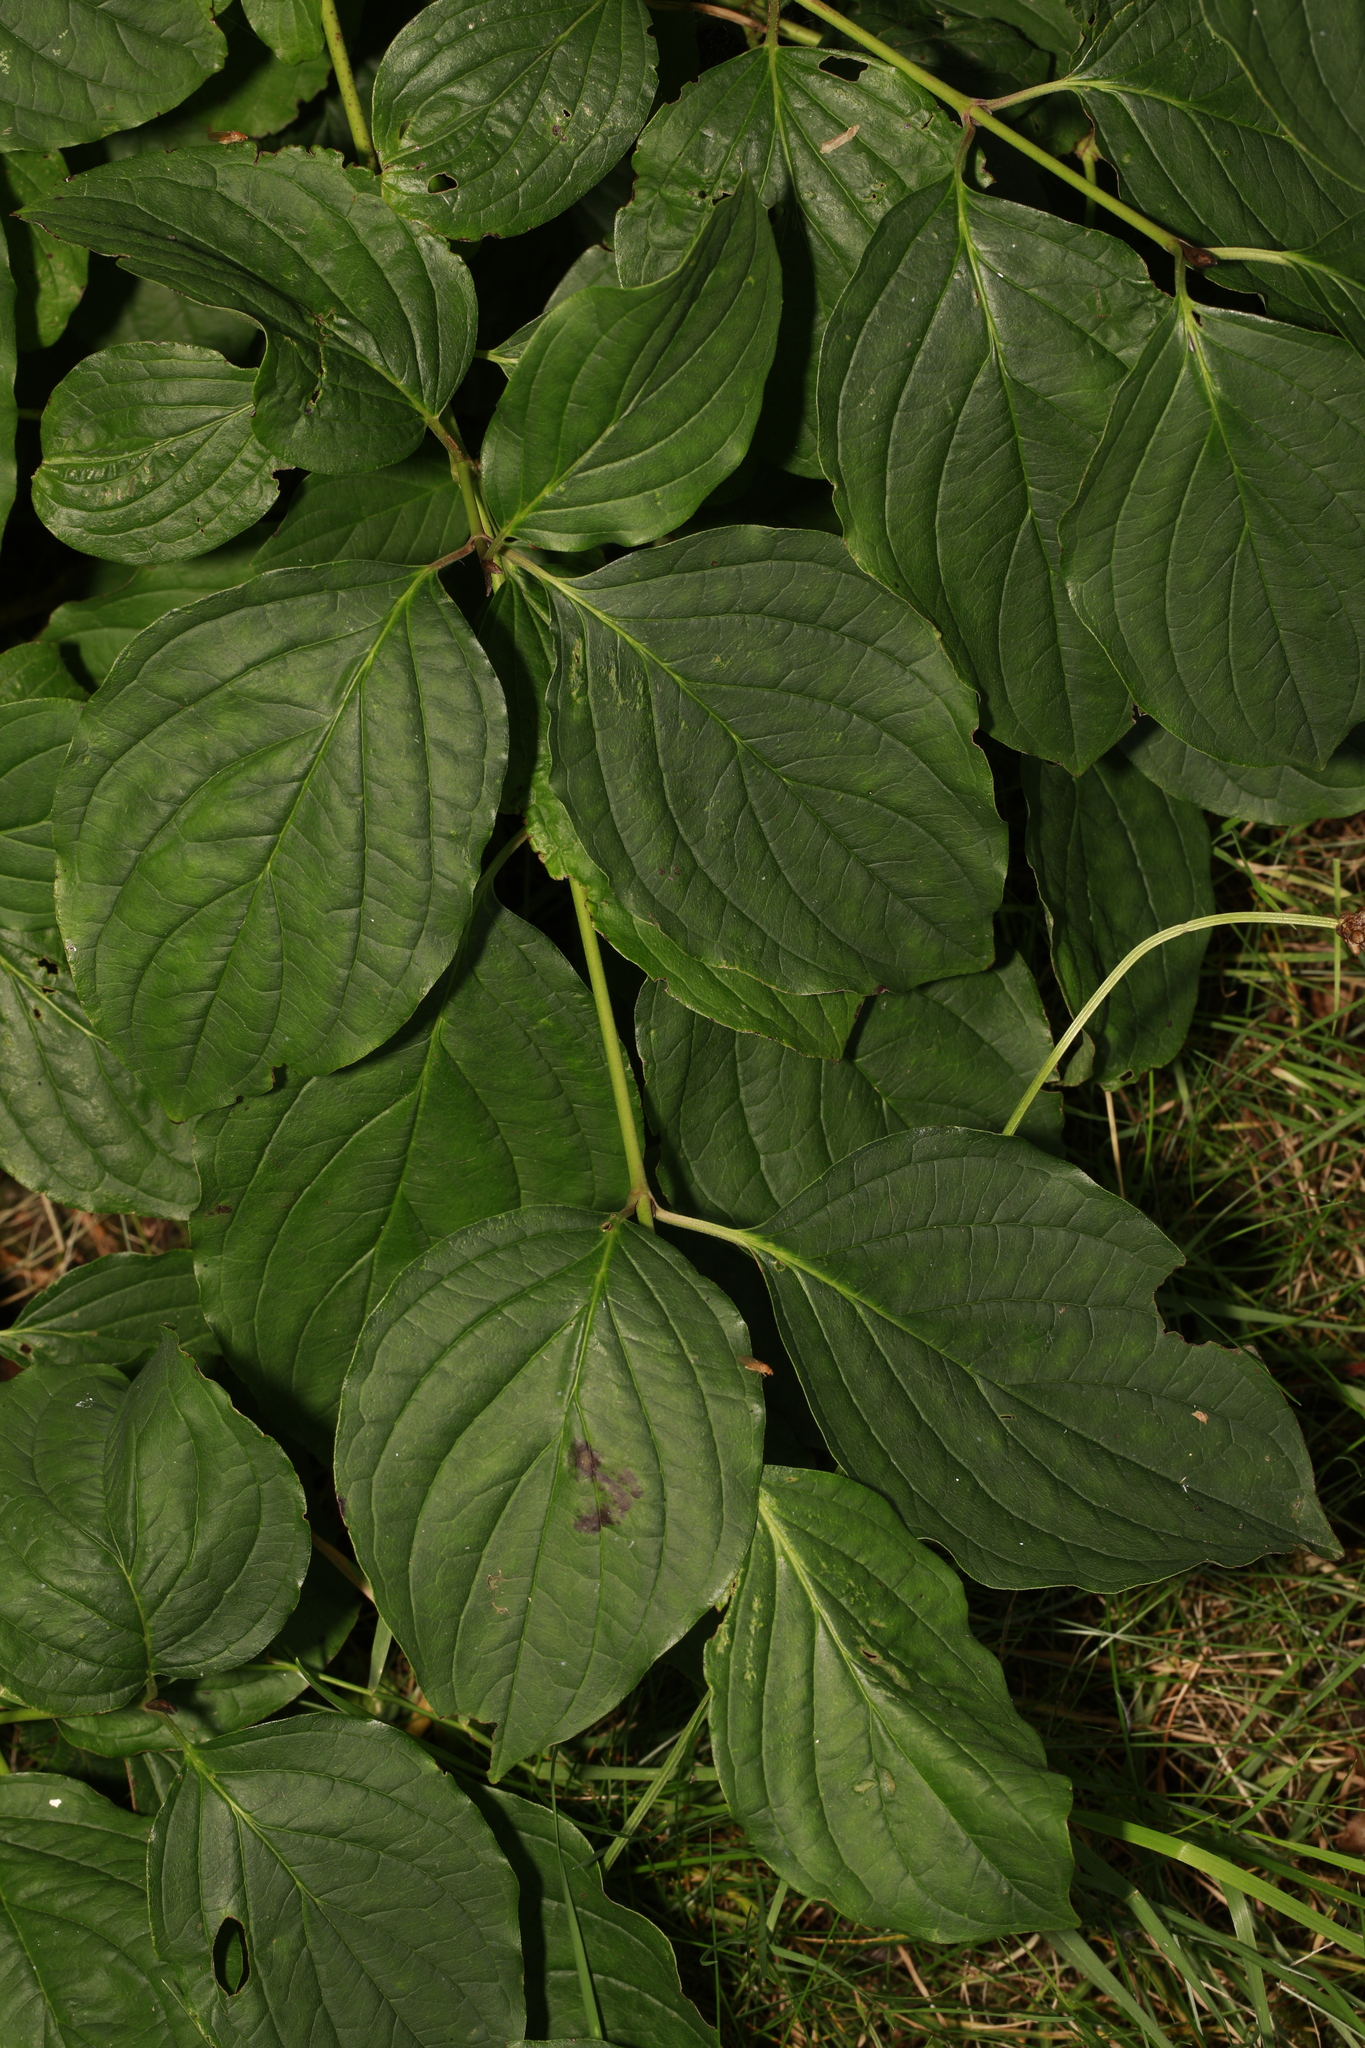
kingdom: Plantae
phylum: Tracheophyta
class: Magnoliopsida
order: Cornales
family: Cornaceae
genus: Cornus
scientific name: Cornus sanguinea
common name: Dogwood
